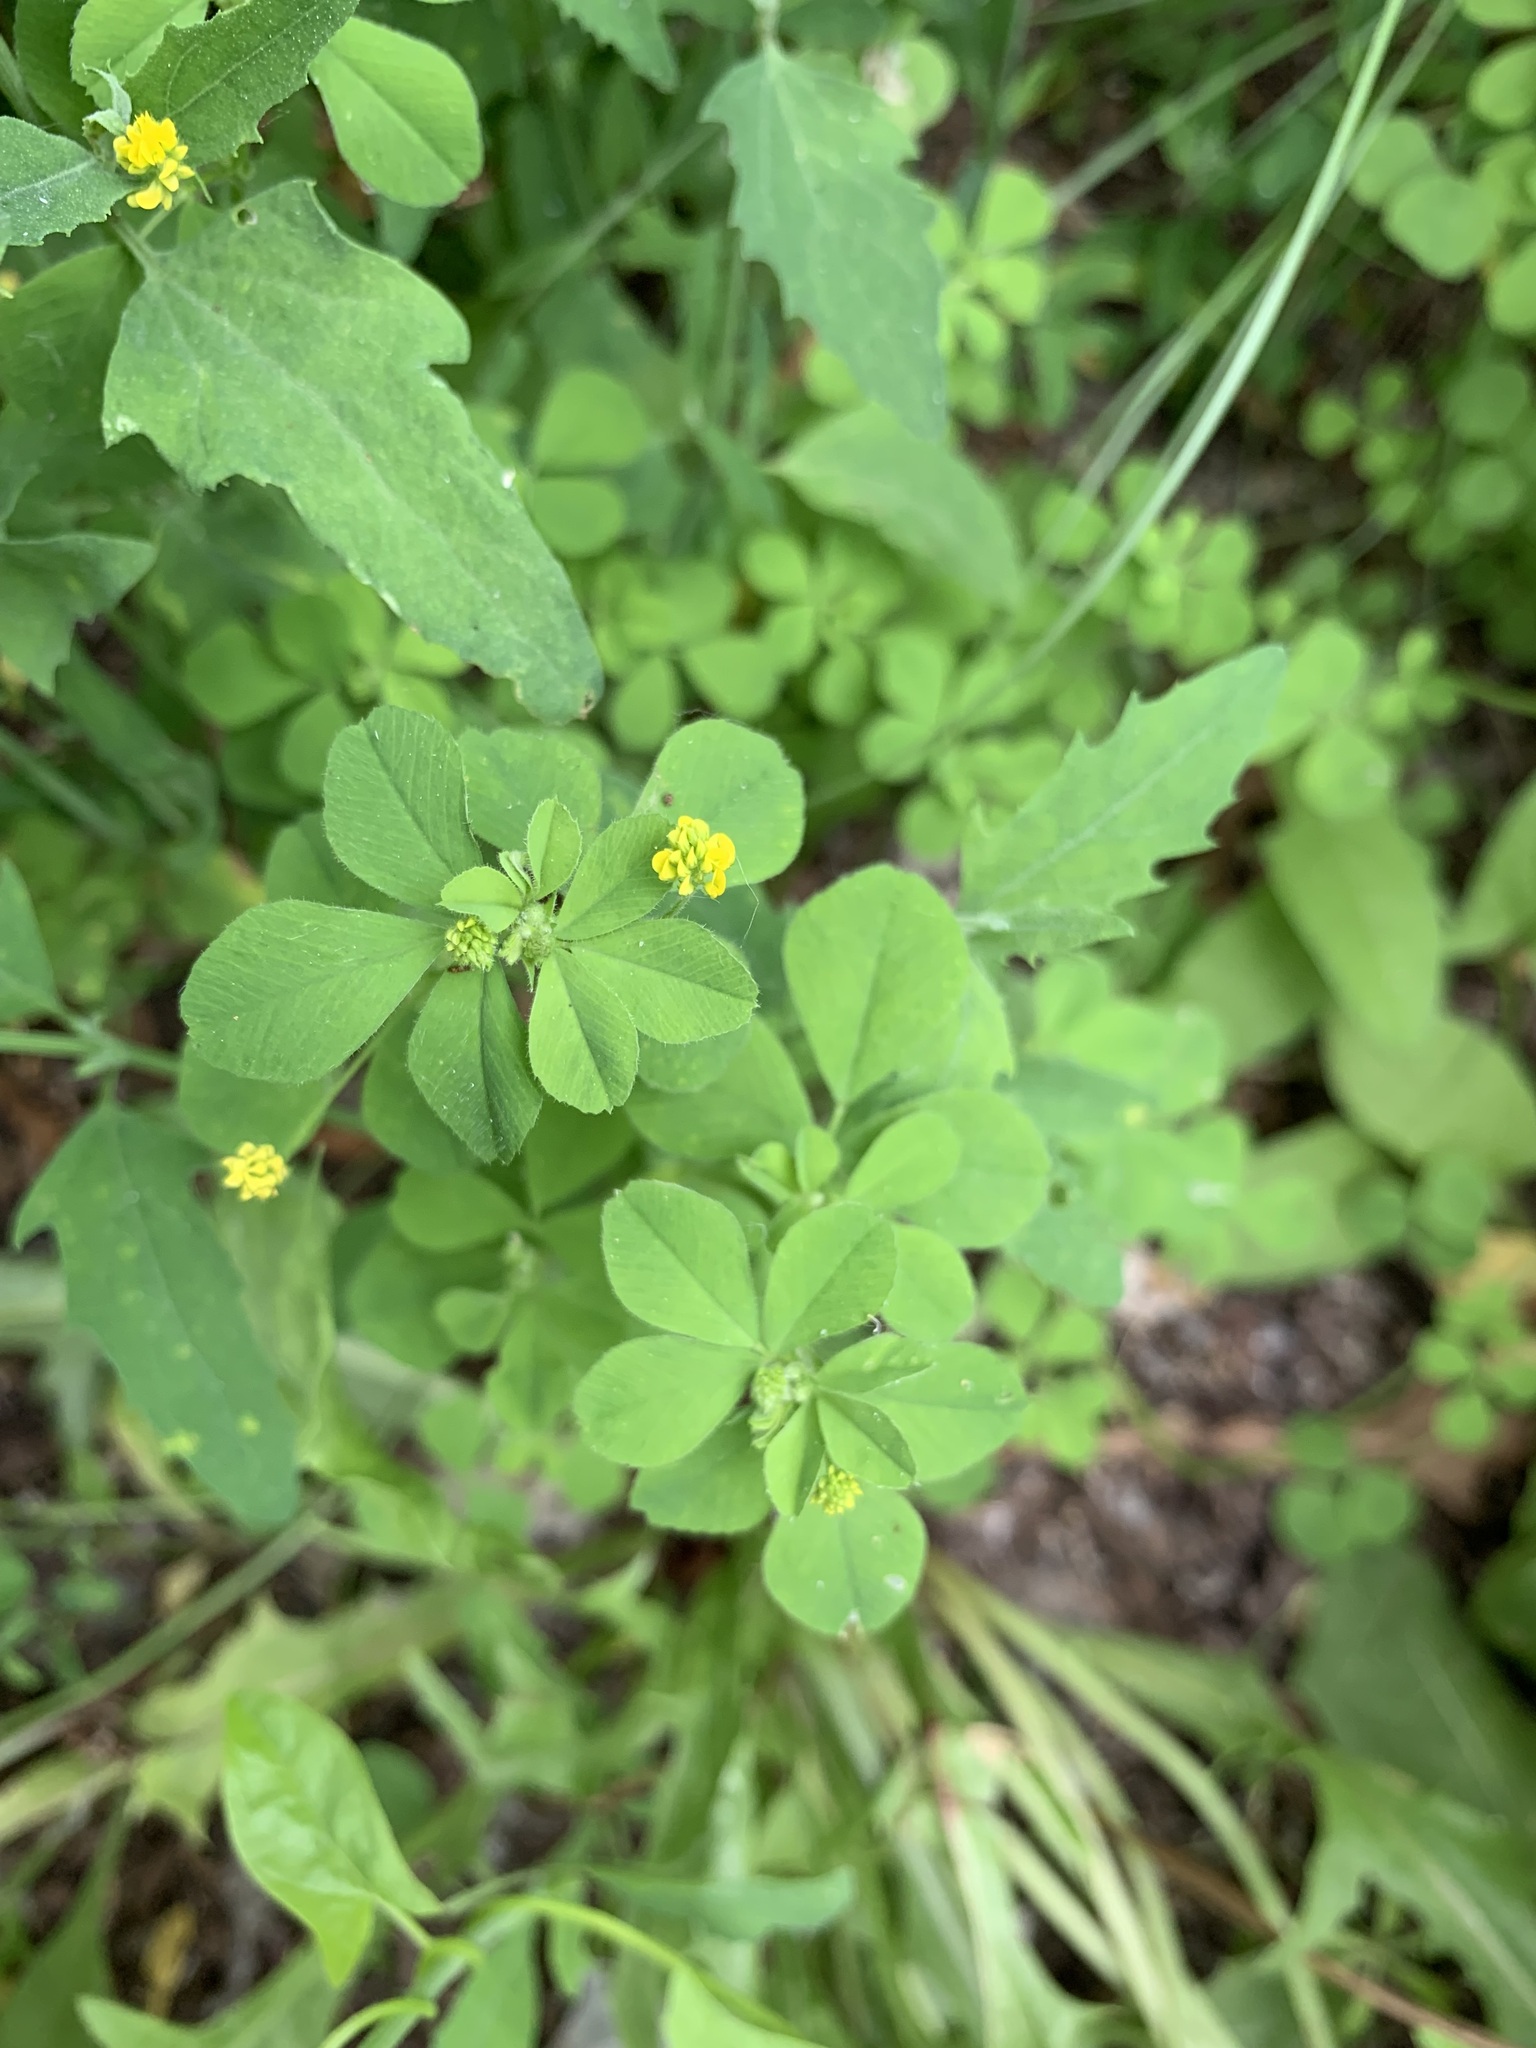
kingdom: Plantae
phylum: Tracheophyta
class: Magnoliopsida
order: Fabales
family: Fabaceae
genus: Medicago
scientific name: Medicago lupulina
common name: Black medick
